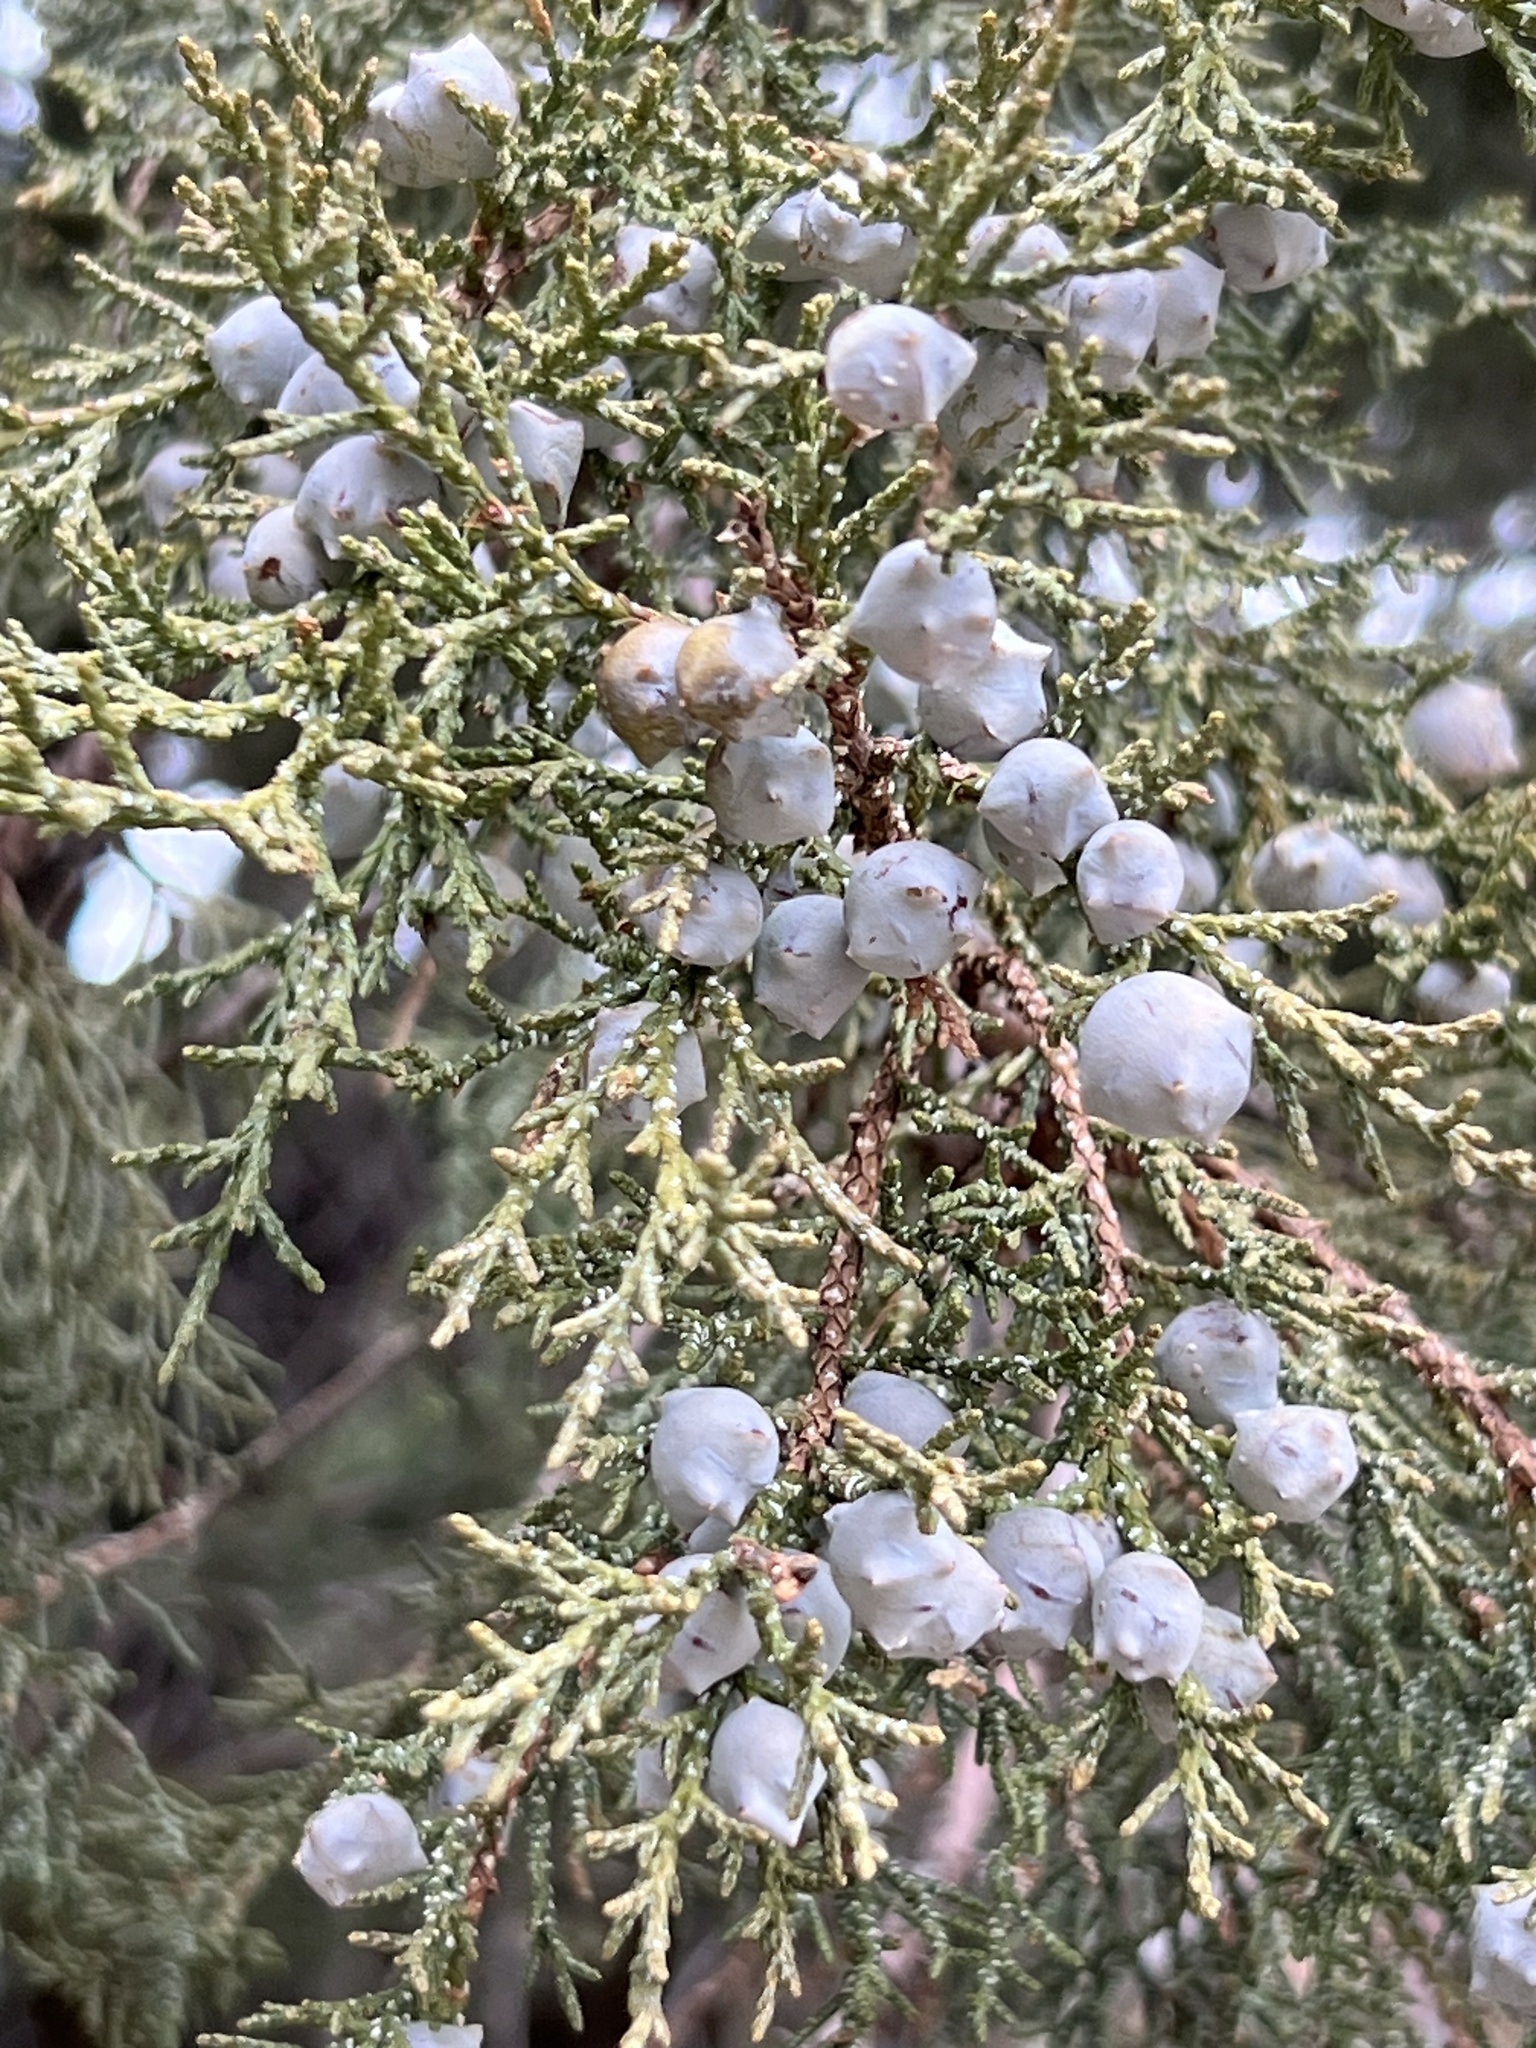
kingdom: Plantae
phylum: Tracheophyta
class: Pinopsida
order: Pinales
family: Cupressaceae
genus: Juniperus
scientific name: Juniperus deppeana
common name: Alligator juniper
